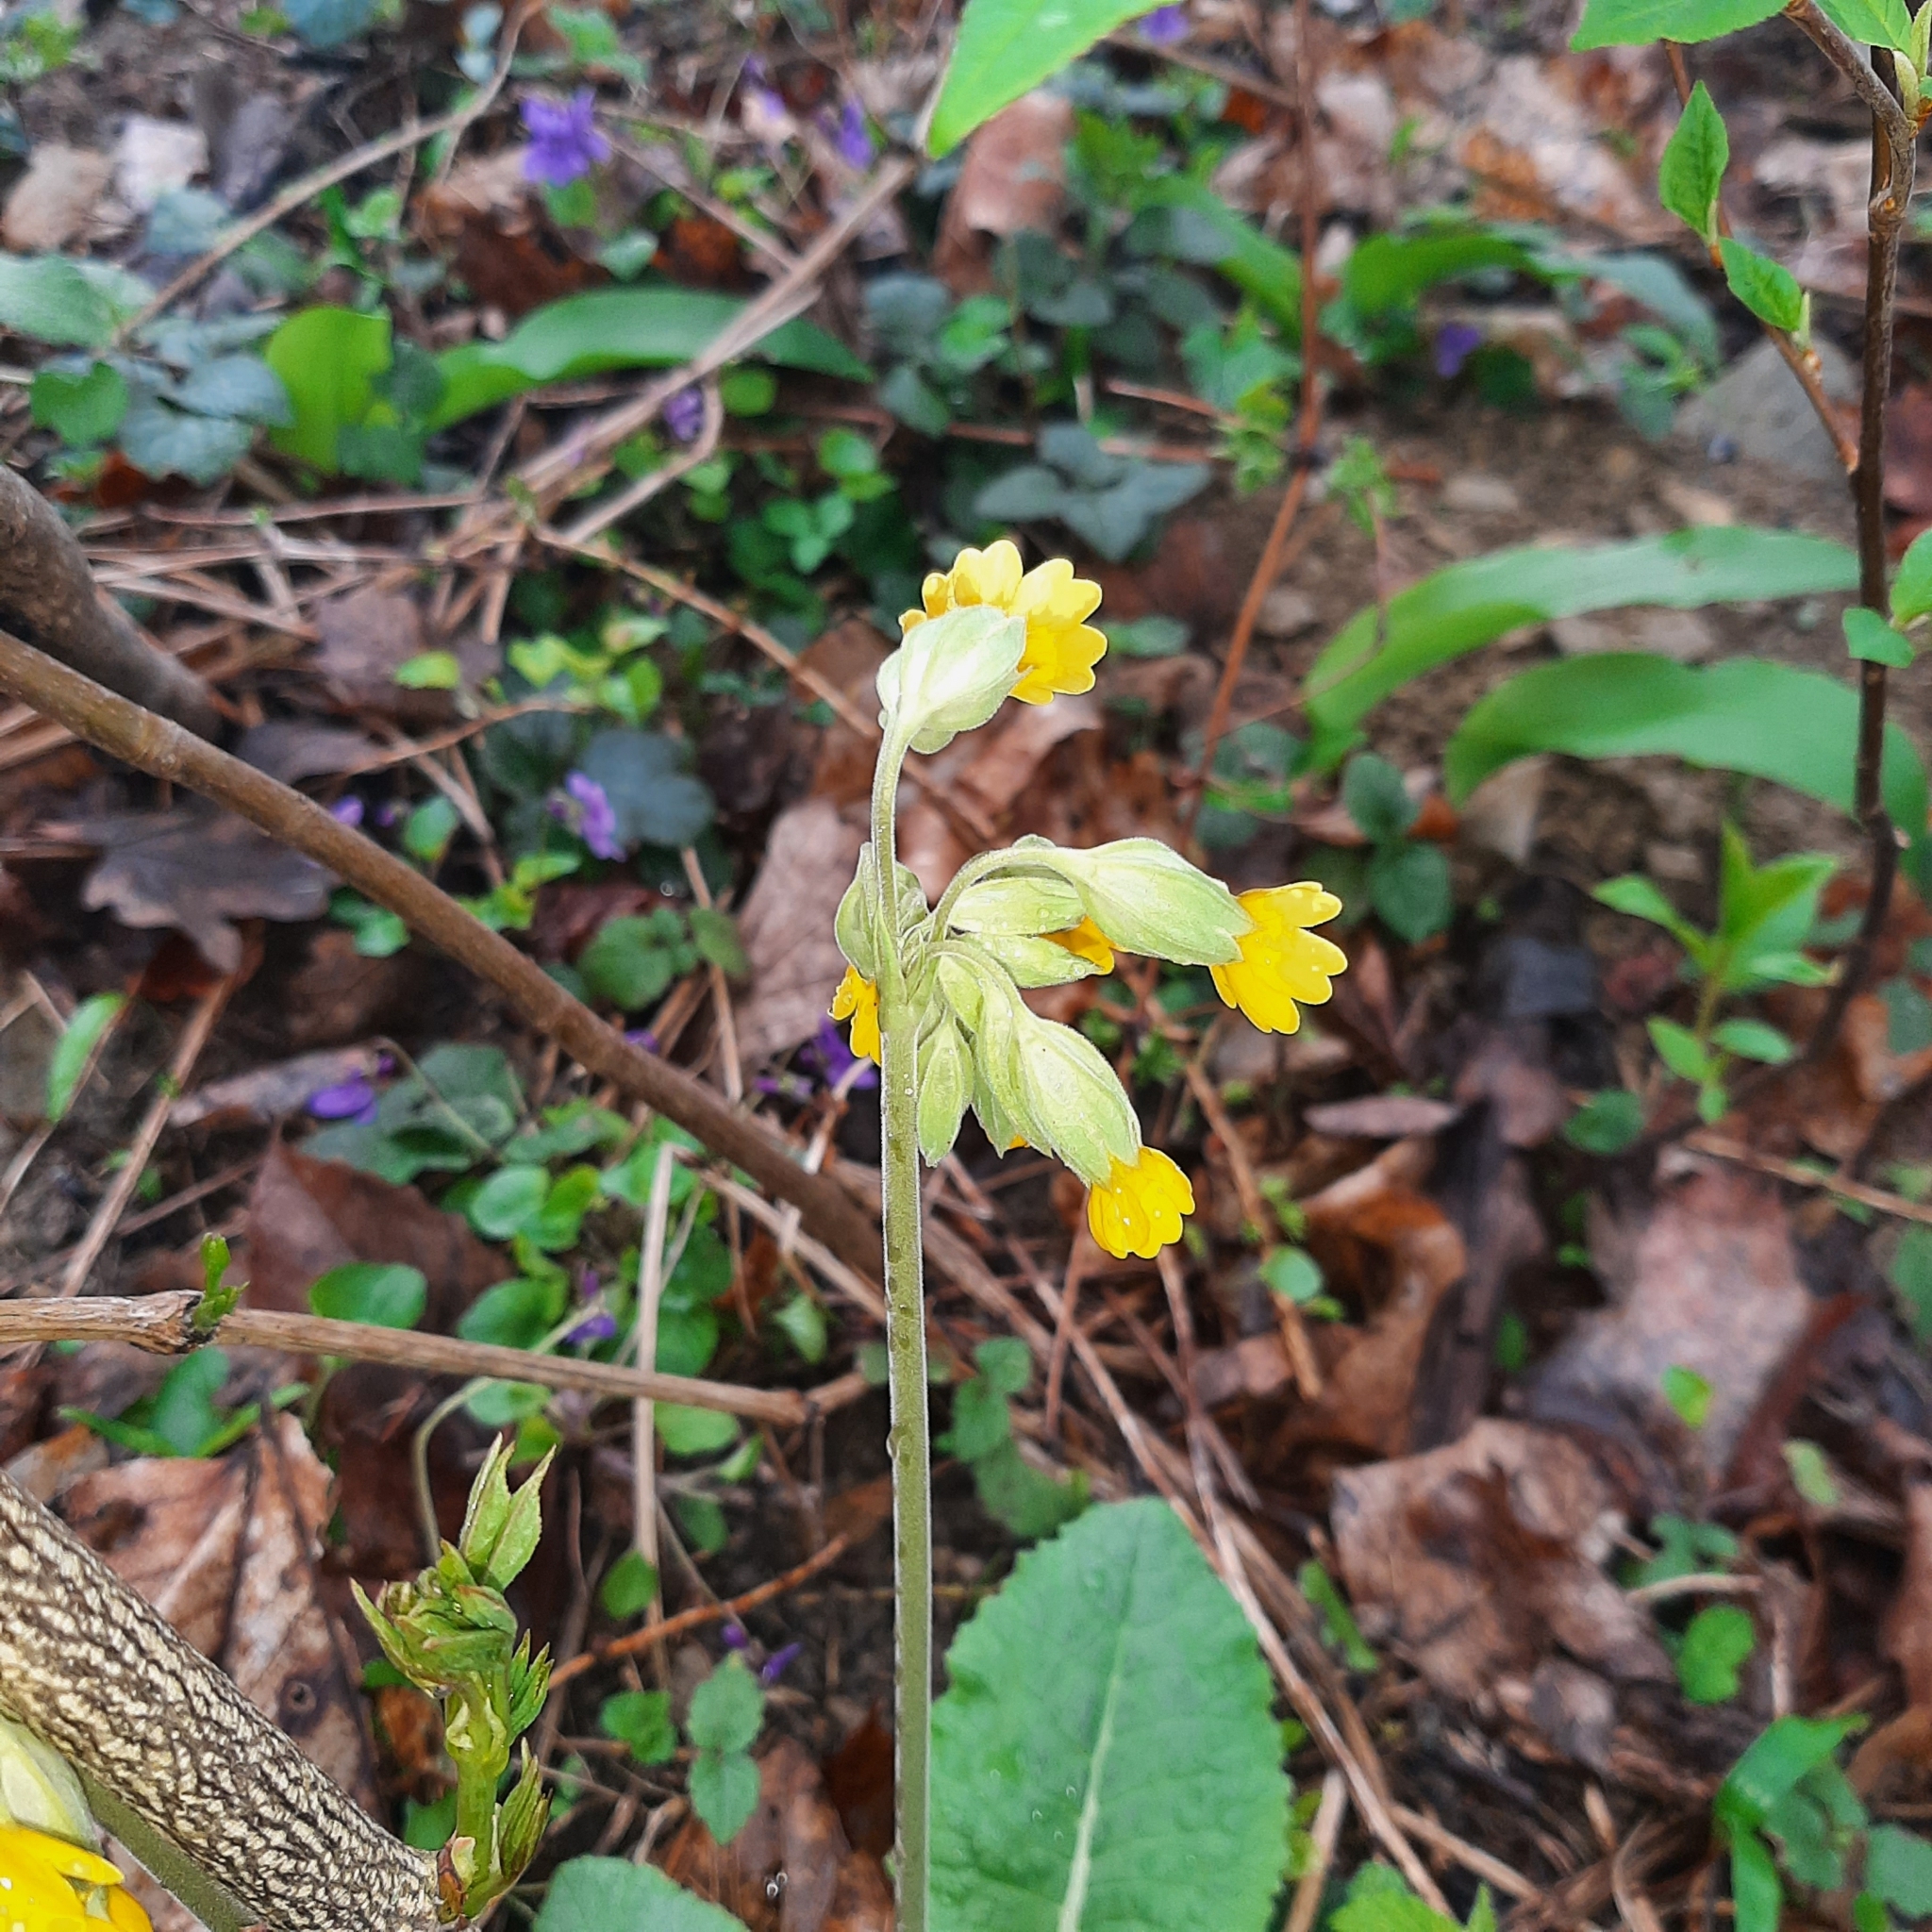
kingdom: Plantae
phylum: Tracheophyta
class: Magnoliopsida
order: Ericales
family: Primulaceae
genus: Primula
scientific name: Primula veris
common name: Cowslip
